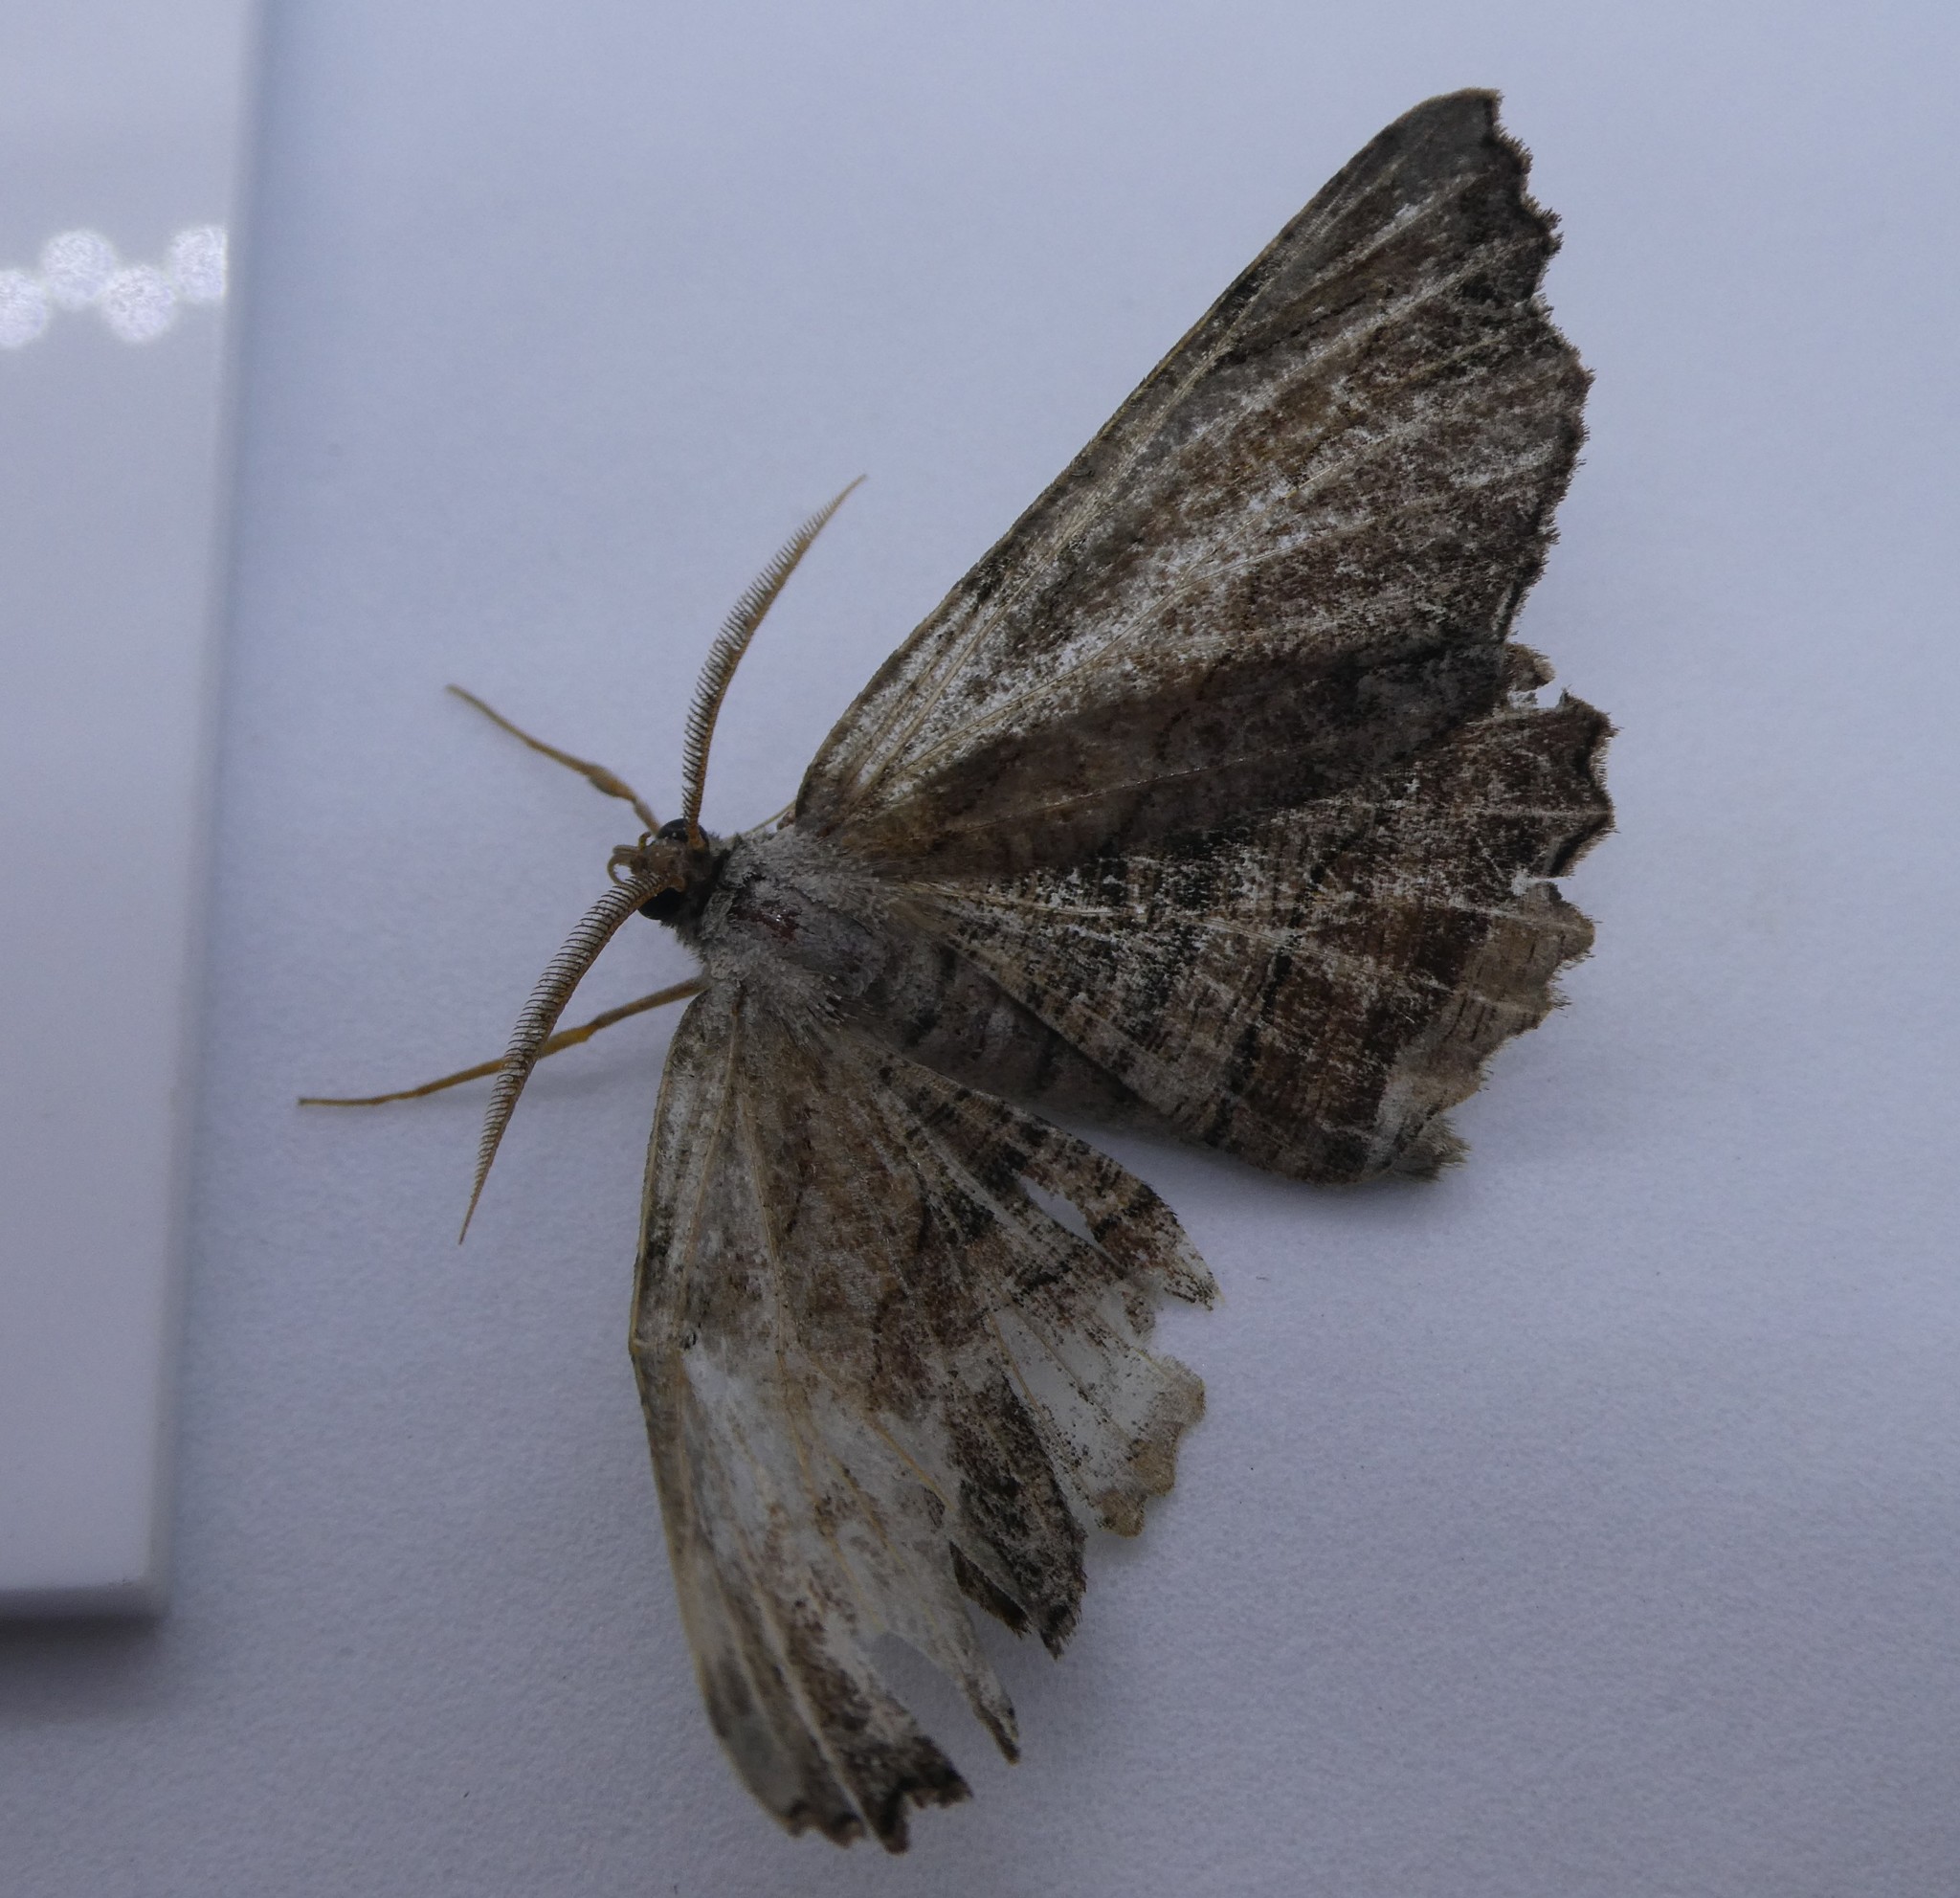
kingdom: Animalia
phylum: Arthropoda
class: Insecta
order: Lepidoptera
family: Geometridae
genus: Lytrosis
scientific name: Lytrosis unitaria
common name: Common lytrosis
